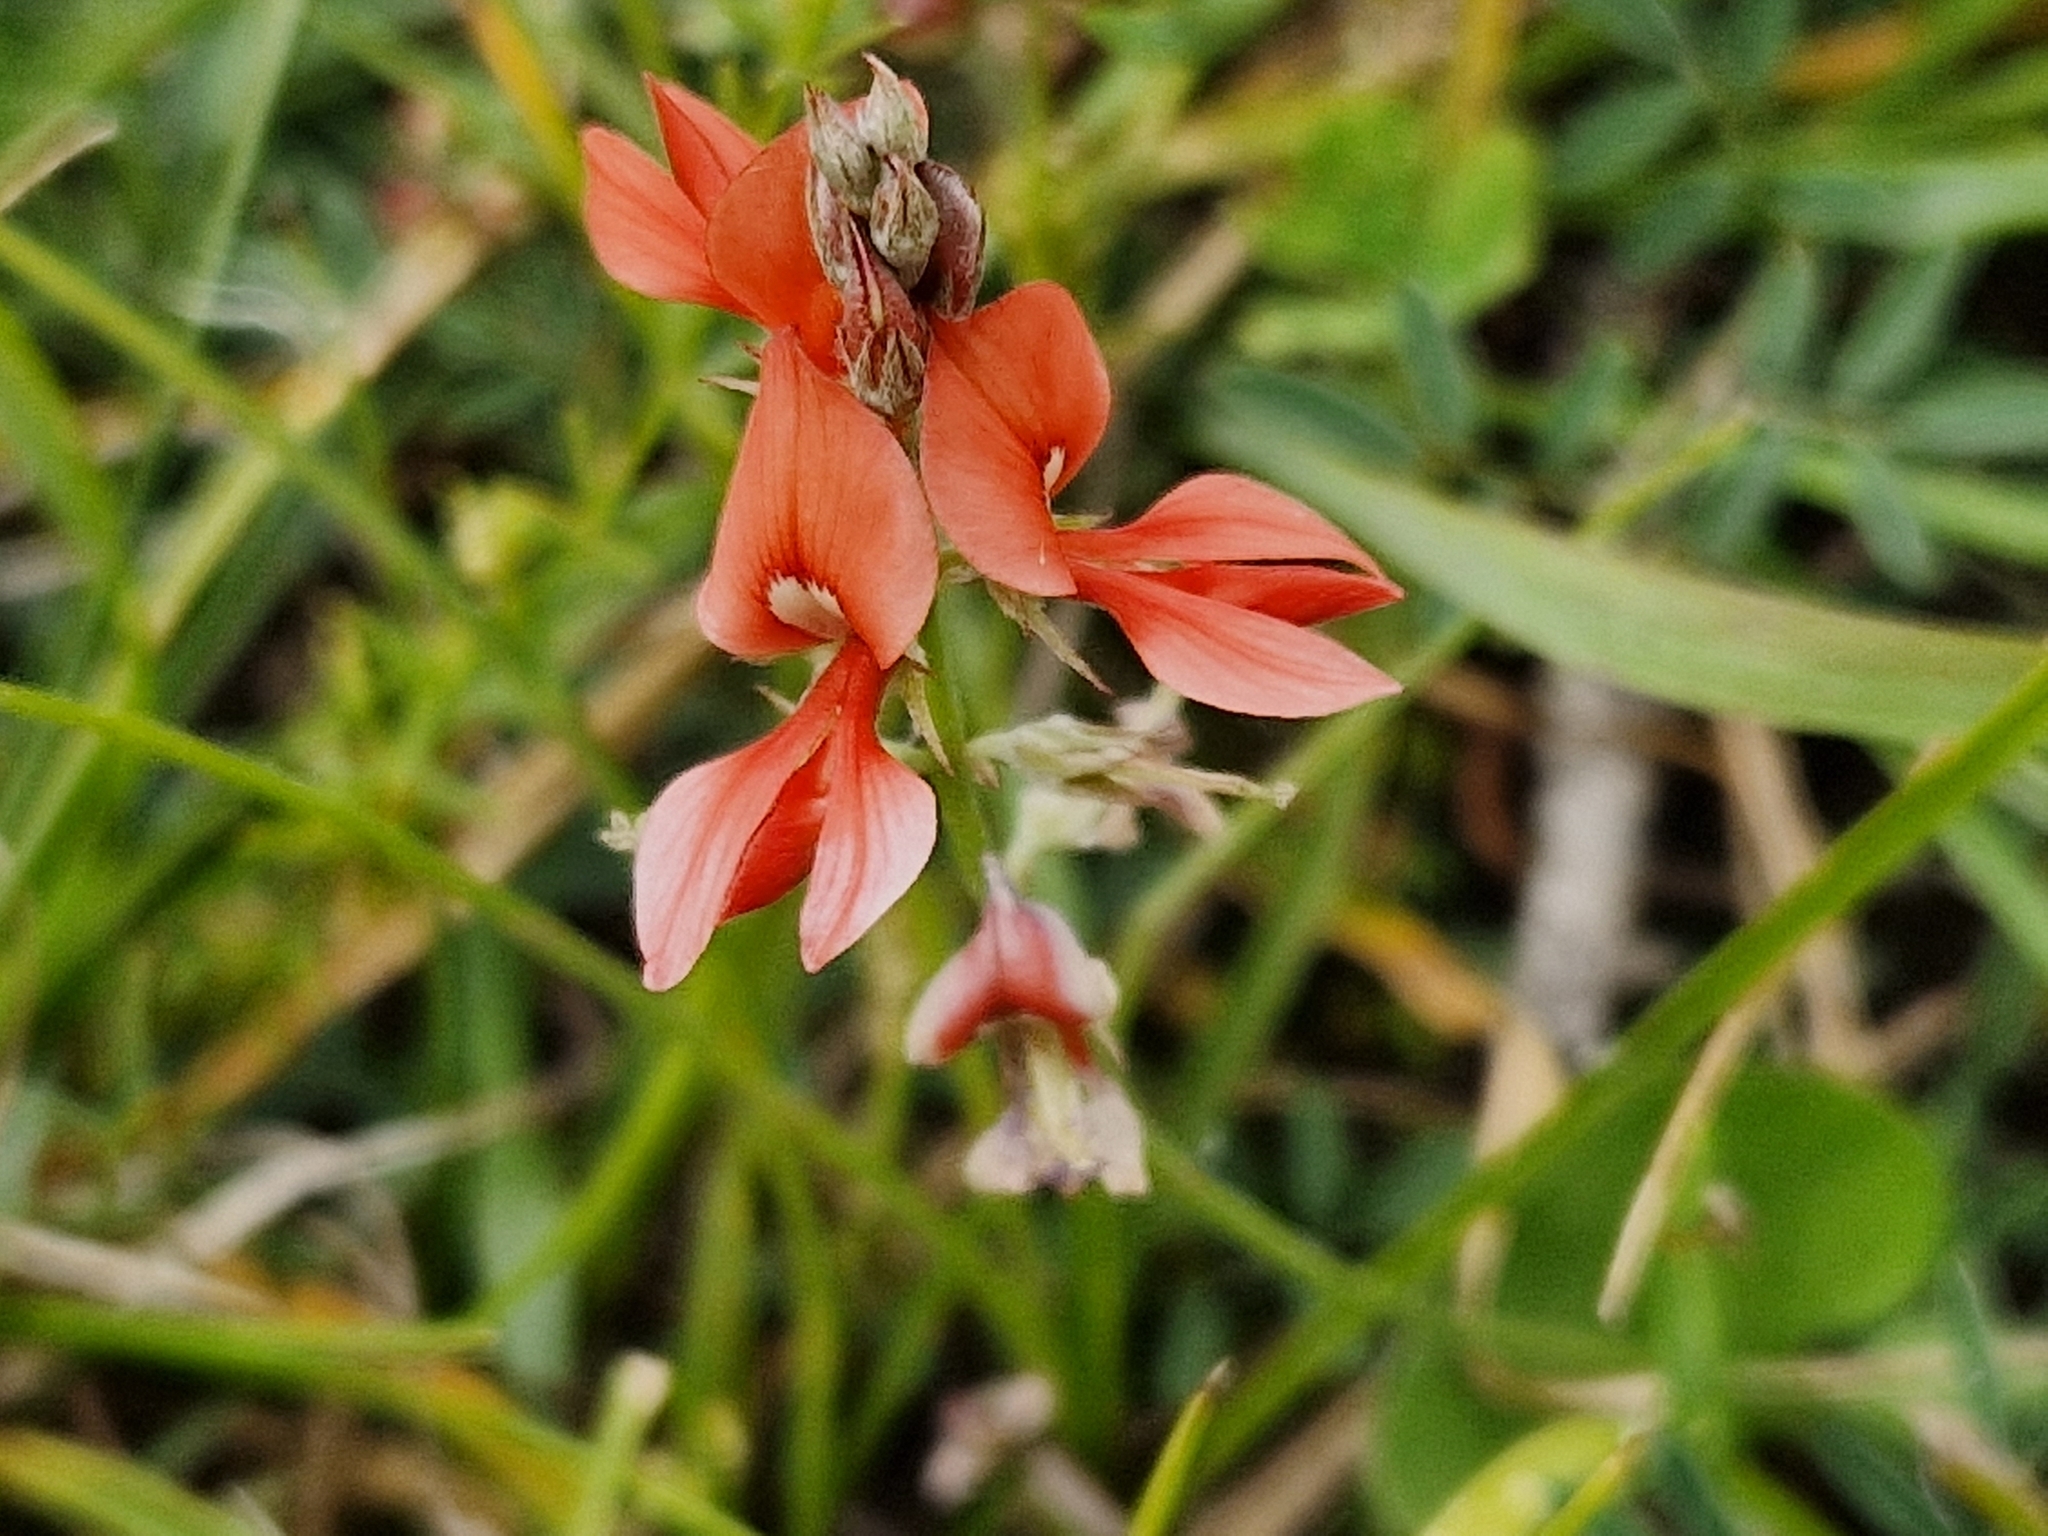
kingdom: Plantae
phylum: Tracheophyta
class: Magnoliopsida
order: Fabales
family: Fabaceae
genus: Indigofera
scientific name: Indigofera bongardiana
